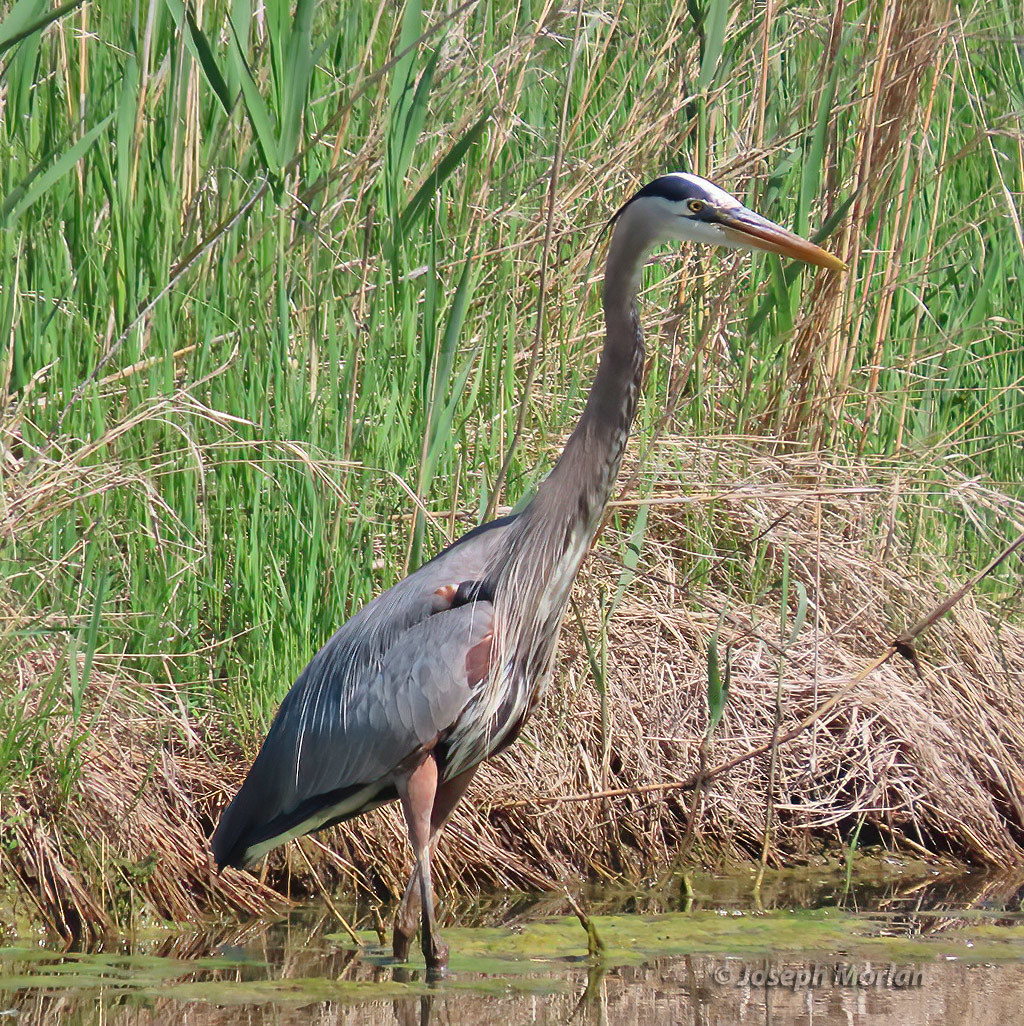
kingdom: Animalia
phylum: Chordata
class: Aves
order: Pelecaniformes
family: Ardeidae
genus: Ardea
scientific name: Ardea herodias
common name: Great blue heron
